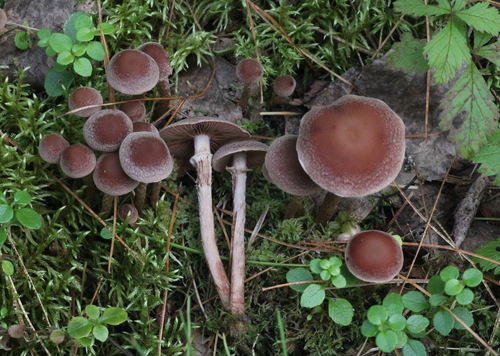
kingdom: Fungi
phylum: Basidiomycota
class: Agaricomycetes
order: Agaricales
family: Tubariaceae
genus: Tubaria
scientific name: Tubaria confragosa
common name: Ringed twiglet
